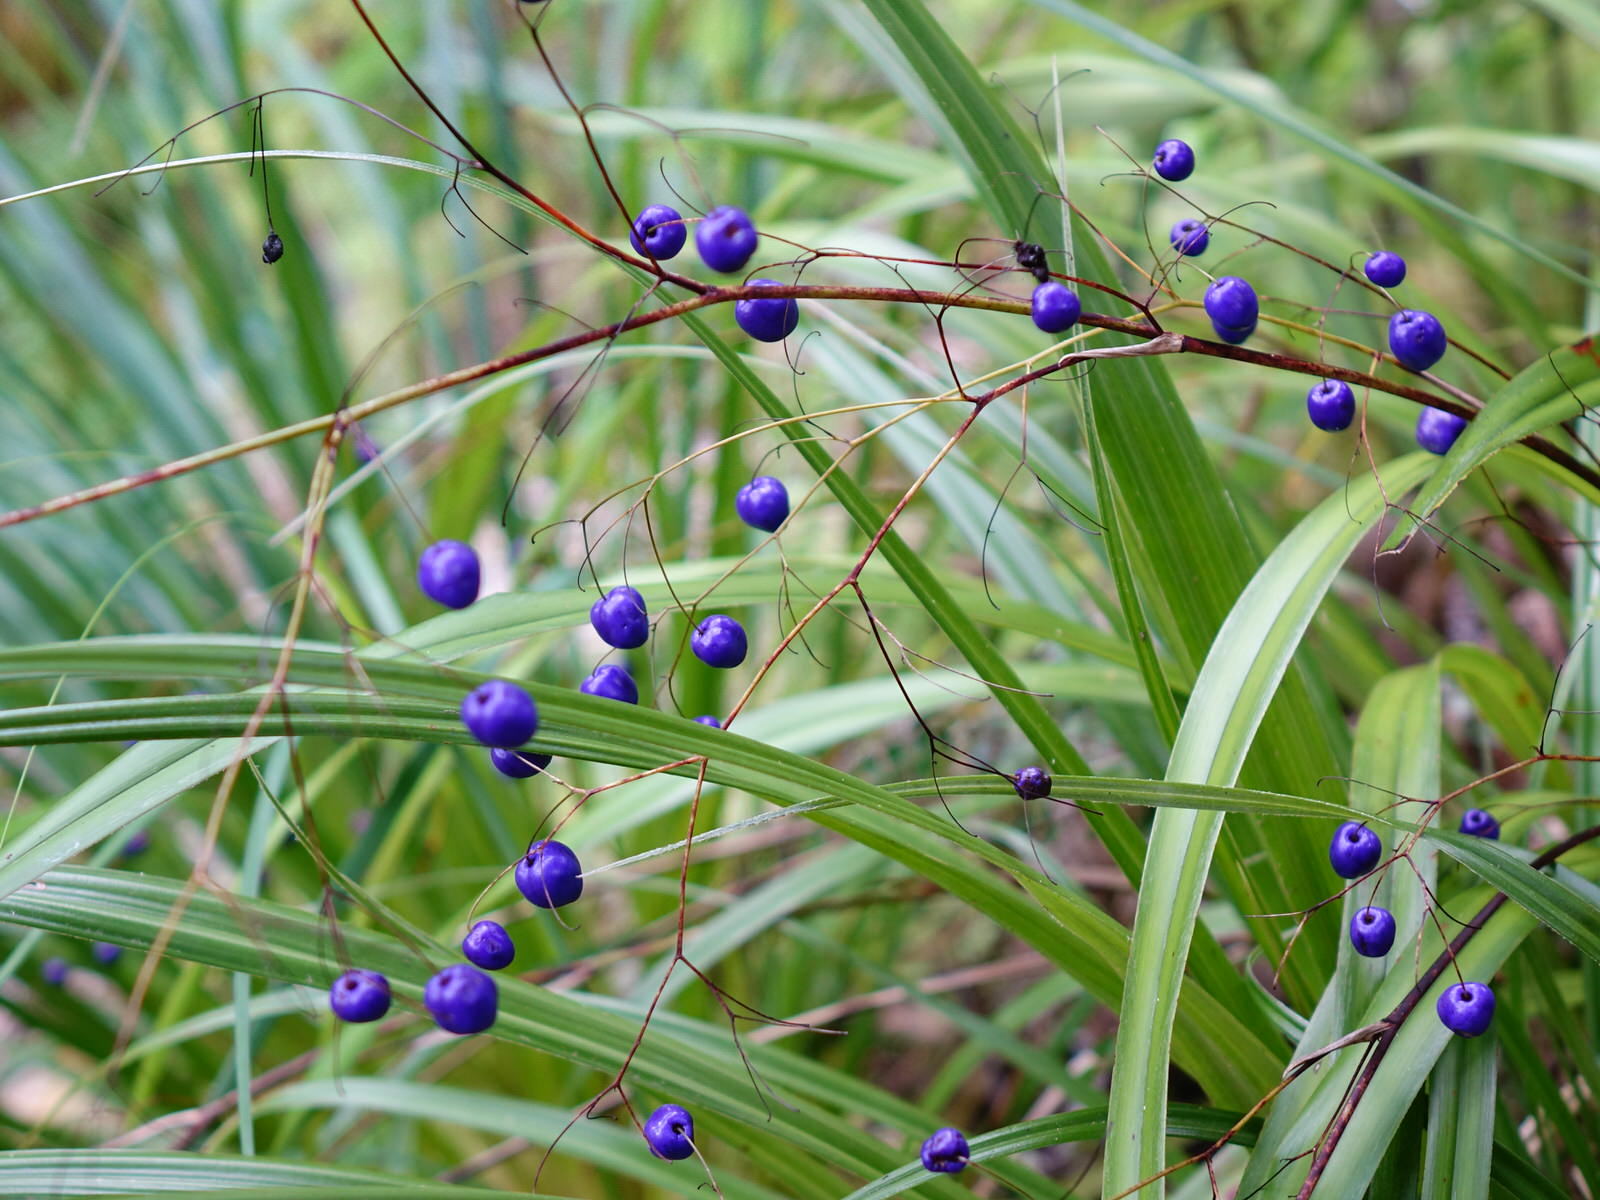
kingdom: Plantae
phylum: Tracheophyta
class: Liliopsida
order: Asparagales
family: Asphodelaceae
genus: Dianella
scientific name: Dianella nigra
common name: New zealand-blueberry
